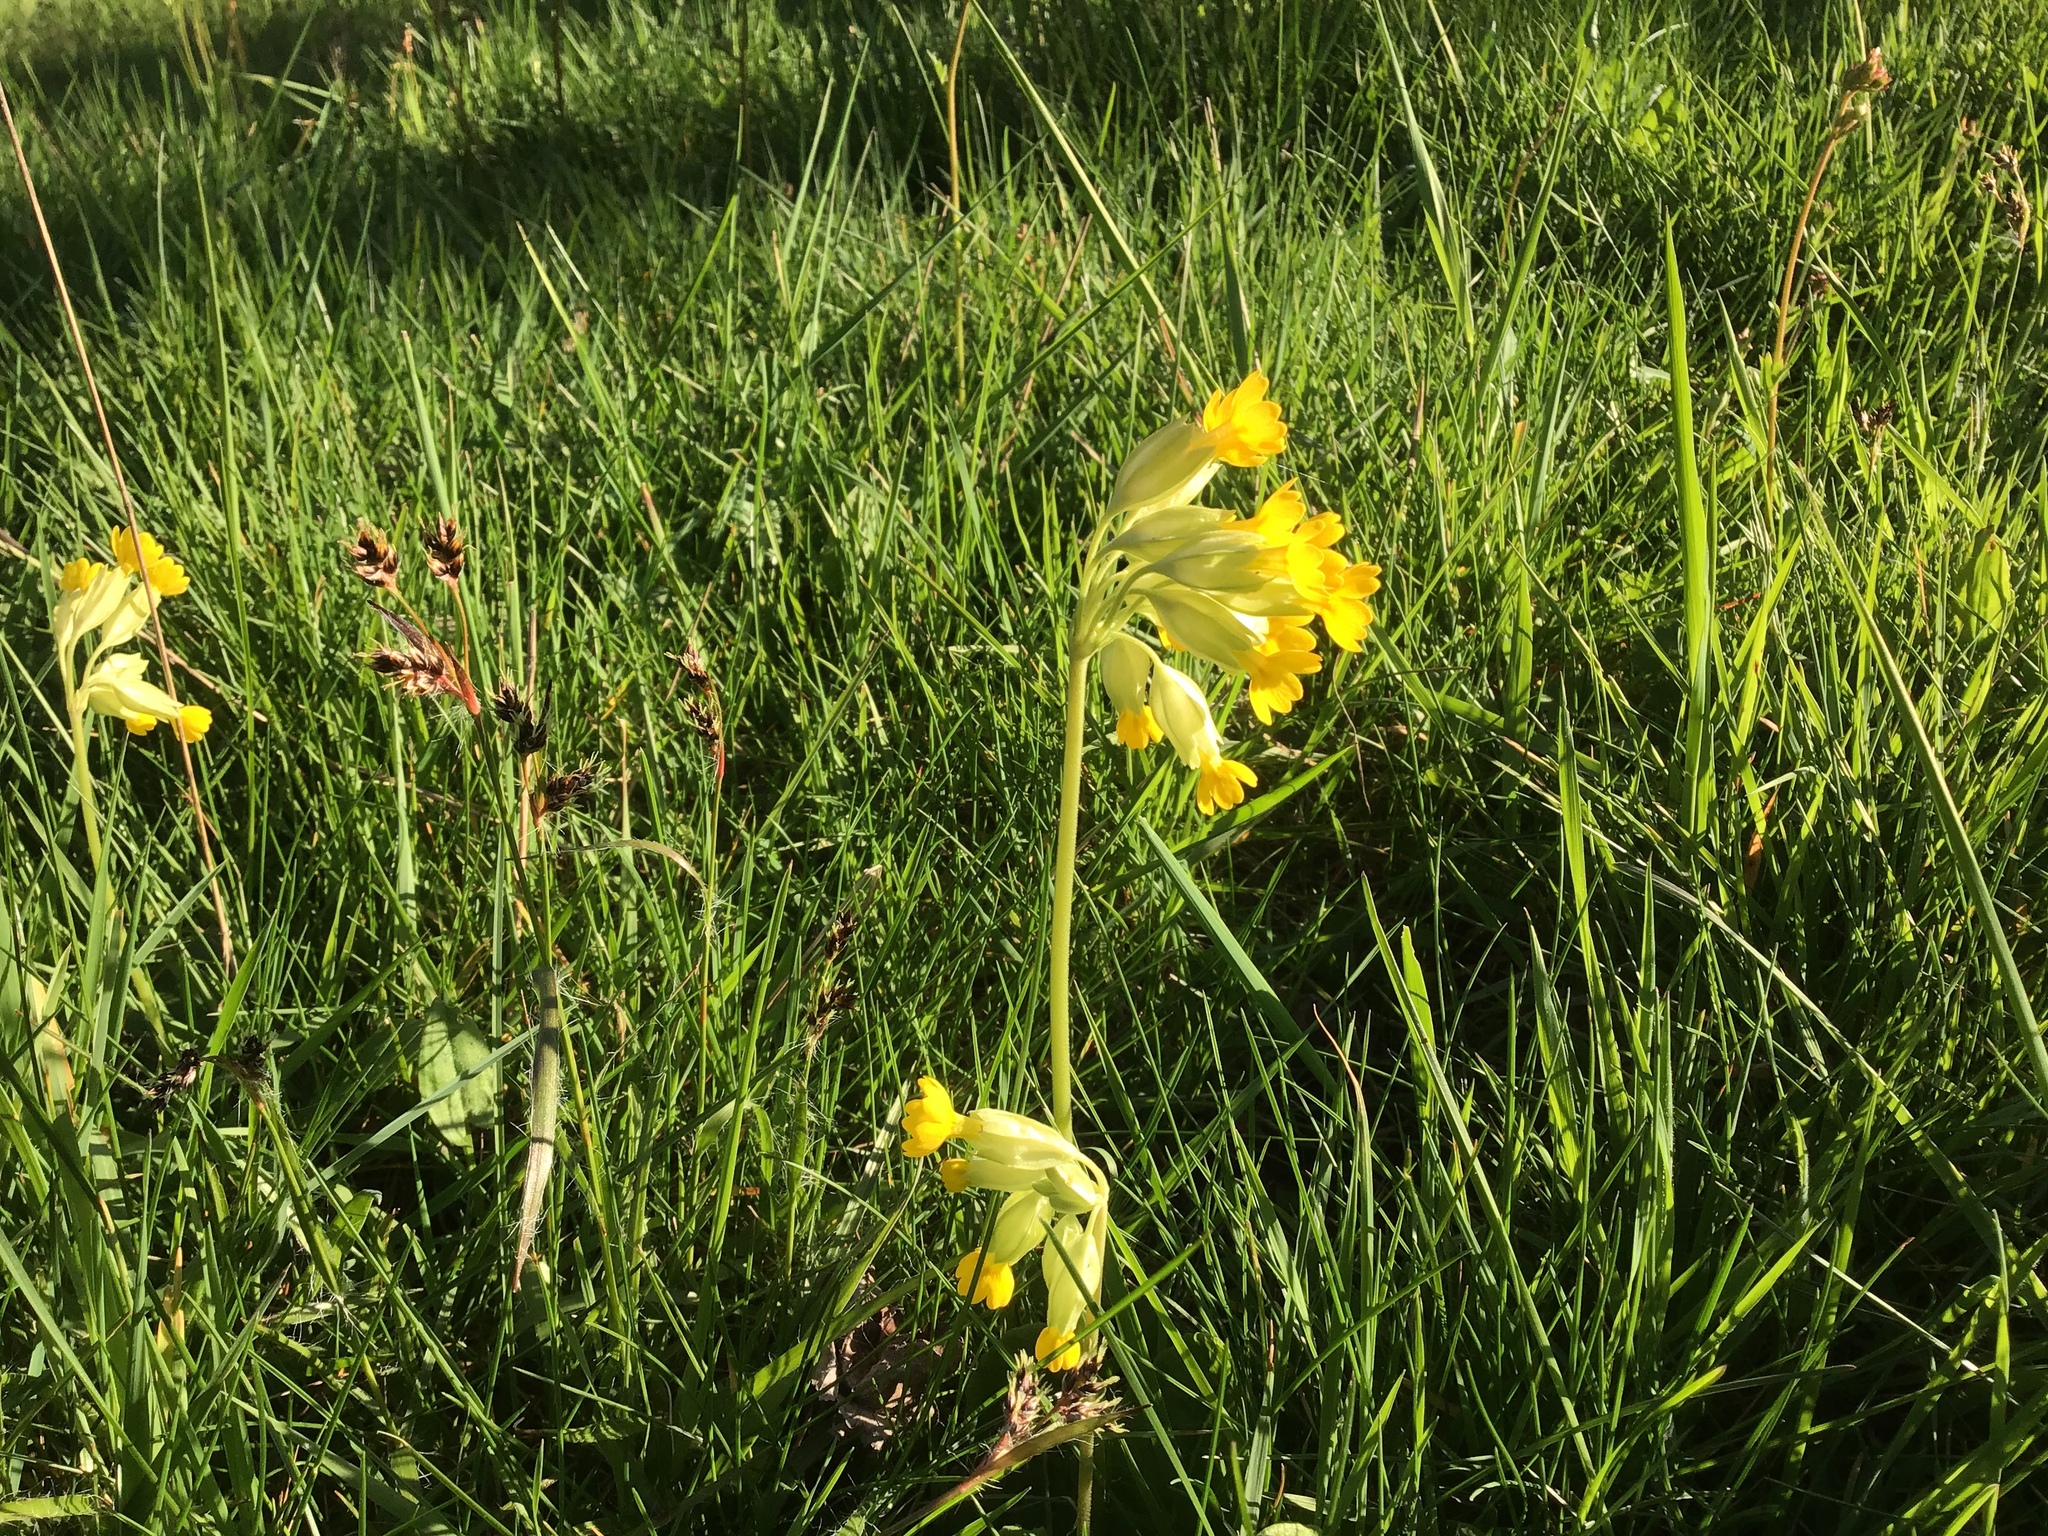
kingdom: Plantae
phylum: Tracheophyta
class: Magnoliopsida
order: Ericales
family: Primulaceae
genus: Primula
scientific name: Primula veris
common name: Cowslip
